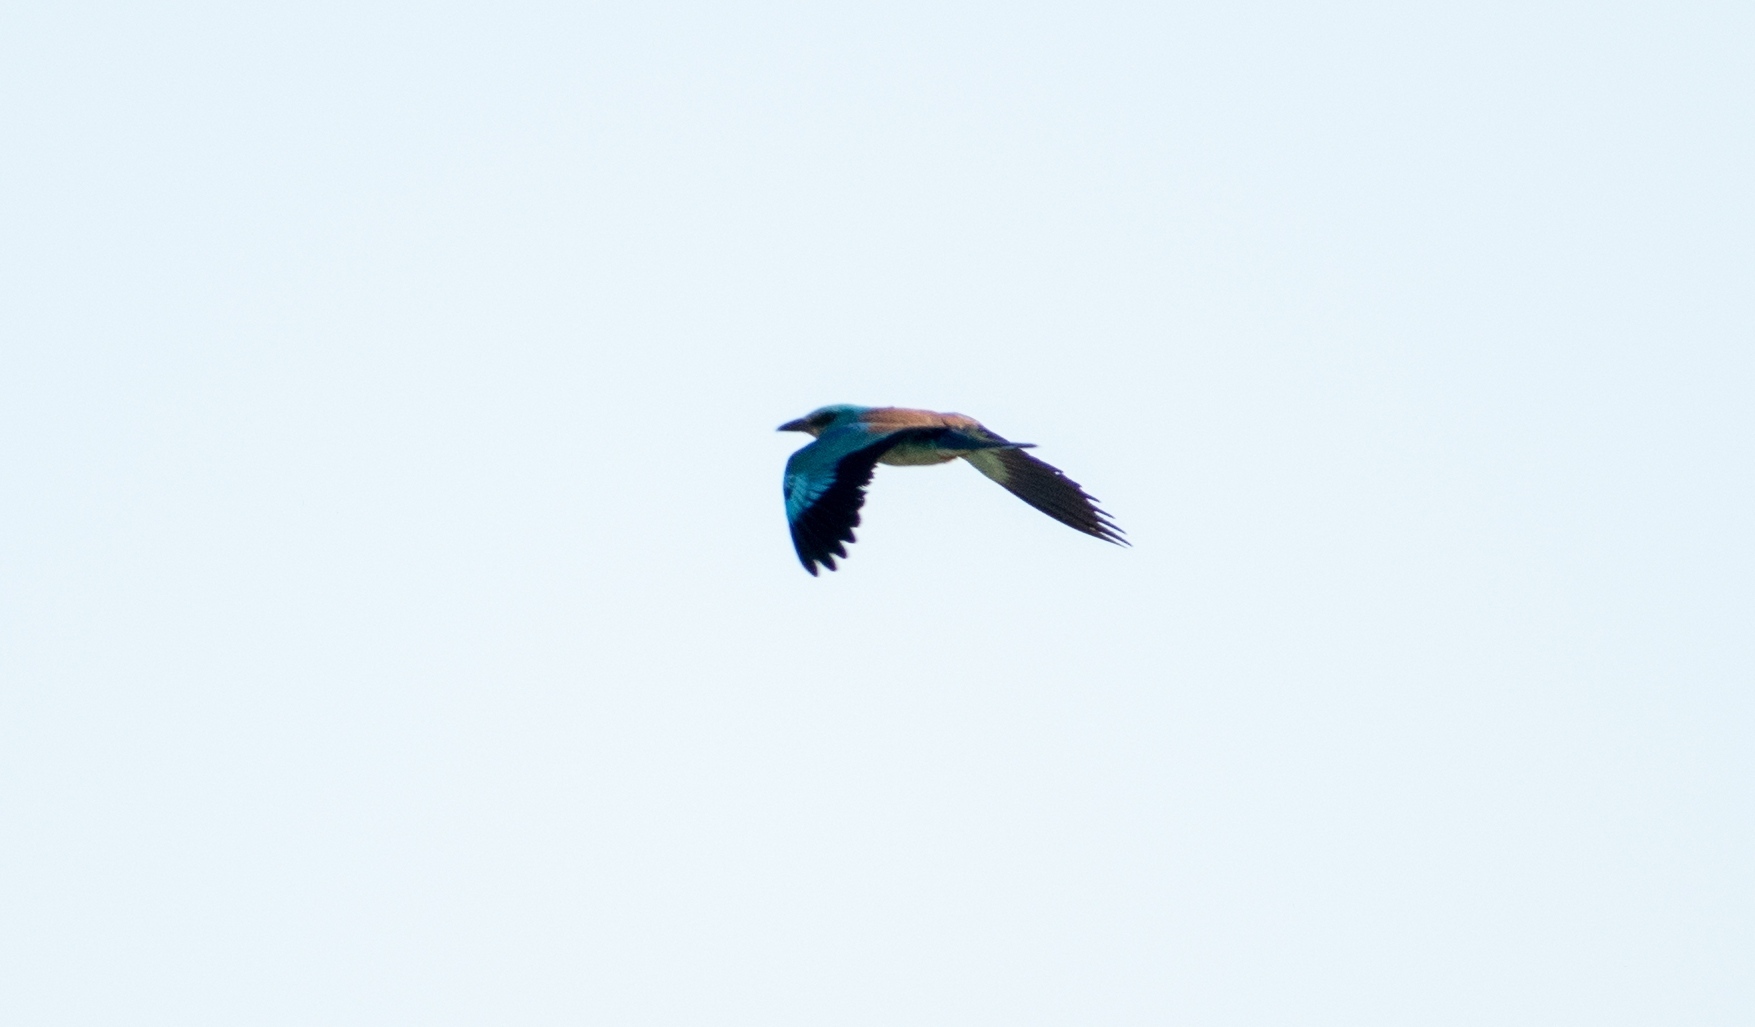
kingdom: Animalia
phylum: Chordata
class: Aves
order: Coraciiformes
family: Coraciidae
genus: Coracias
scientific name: Coracias garrulus
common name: European roller
